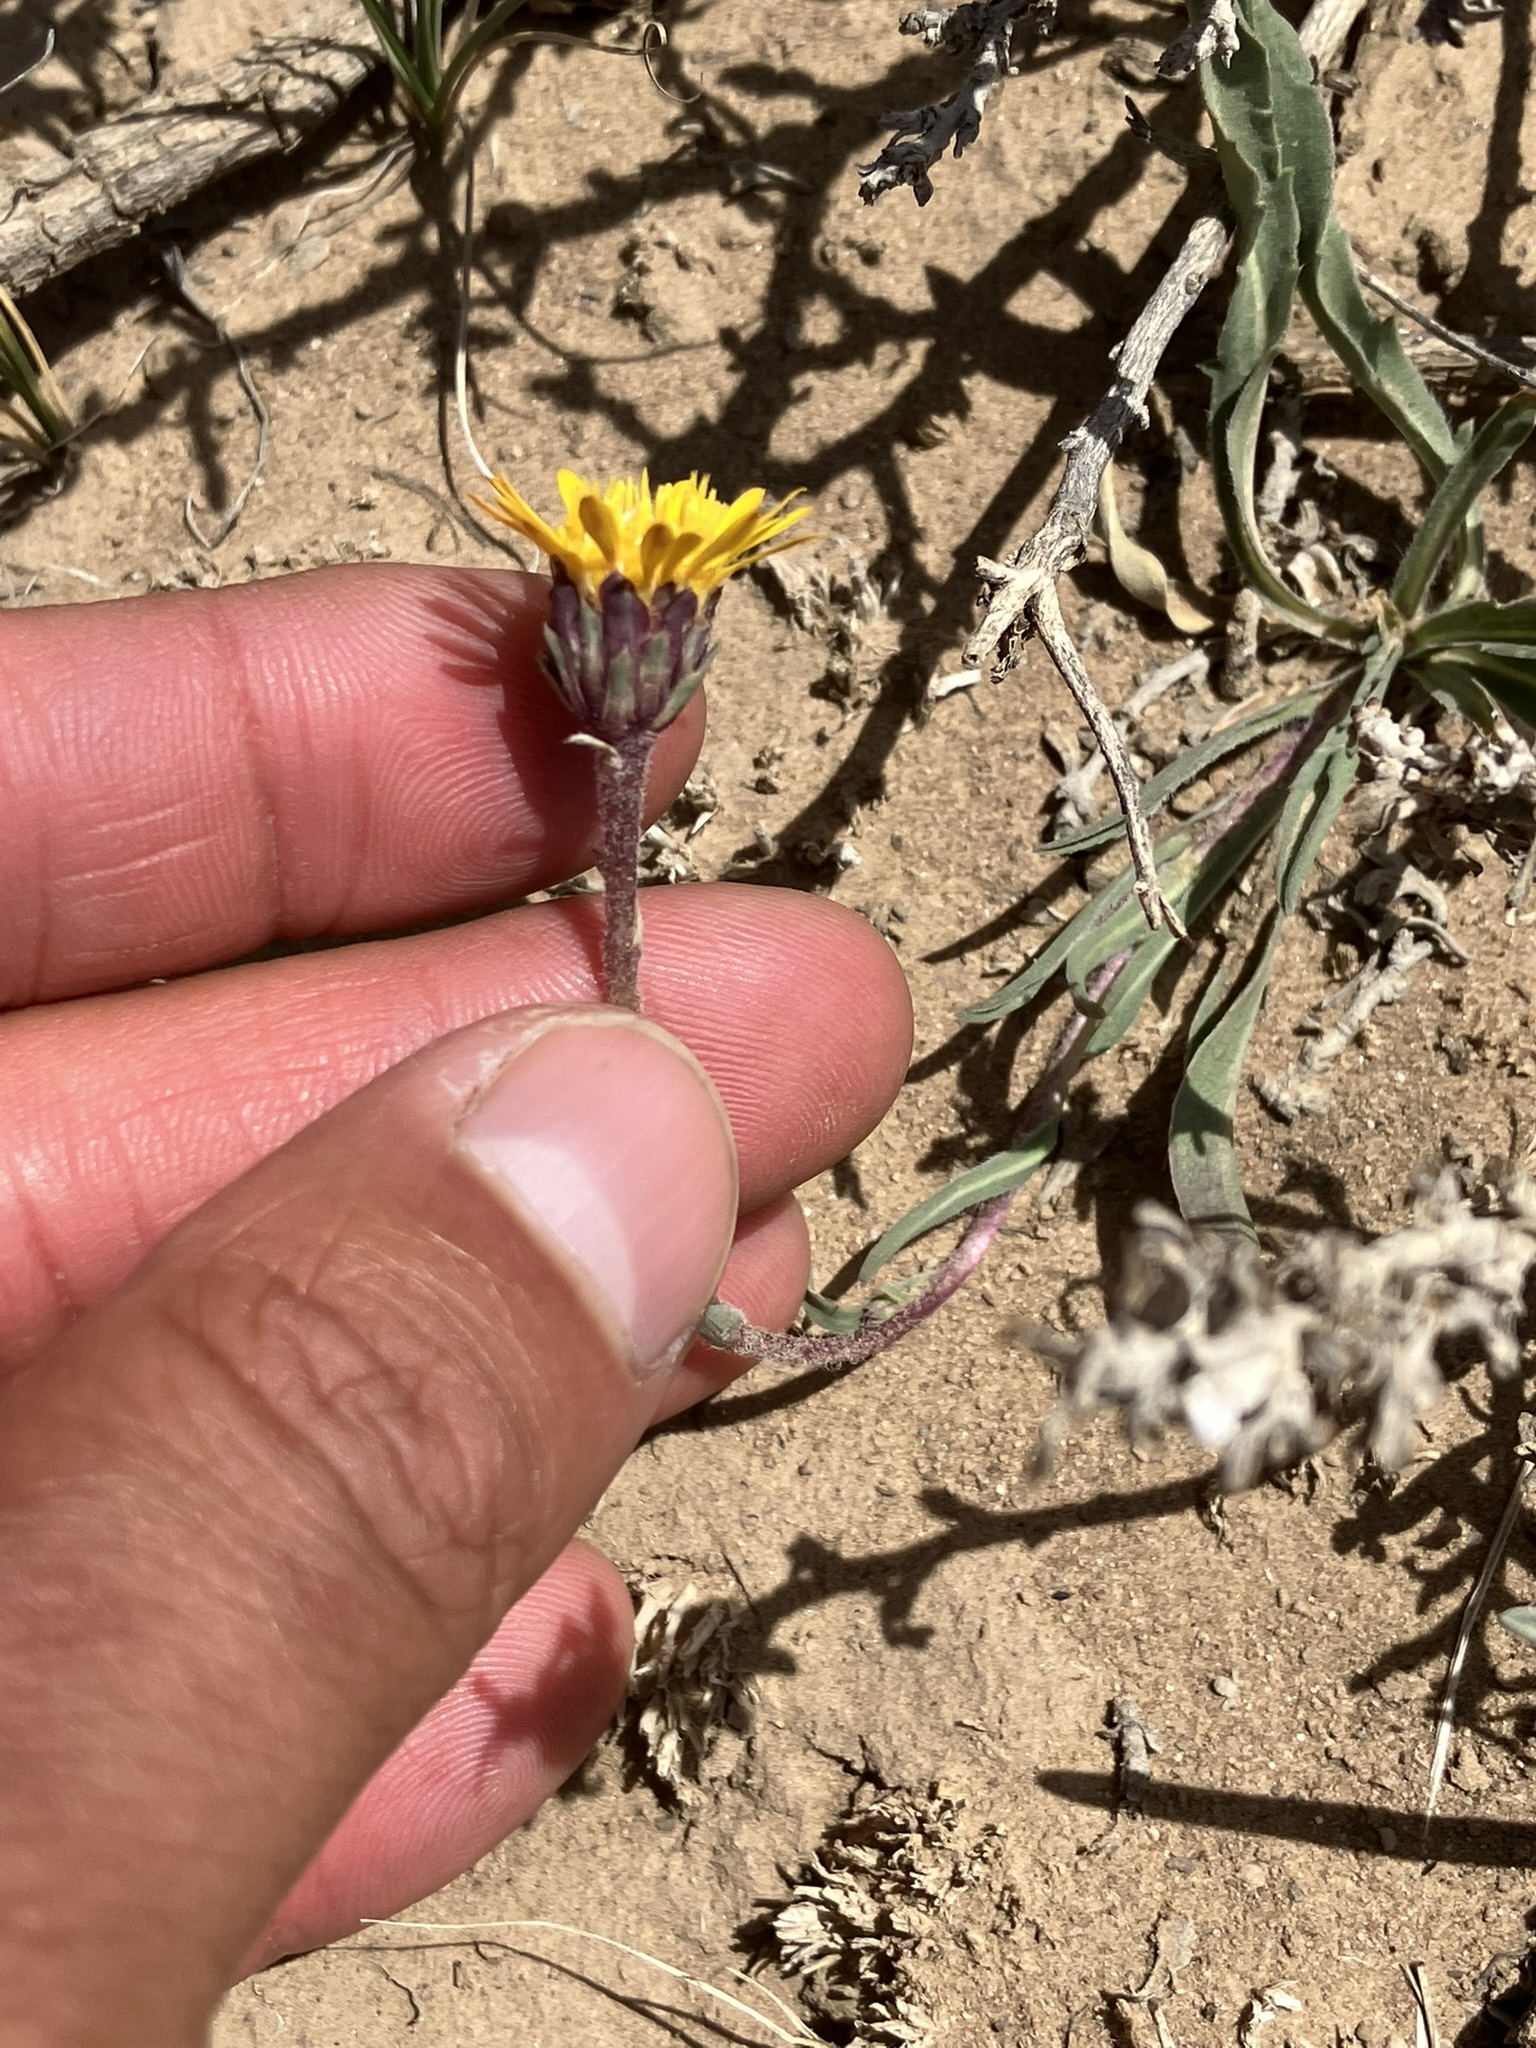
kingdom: Plantae
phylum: Tracheophyta
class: Magnoliopsida
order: Asterales
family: Asteraceae
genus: Pyrrocoma
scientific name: Pyrrocoma apargioides
